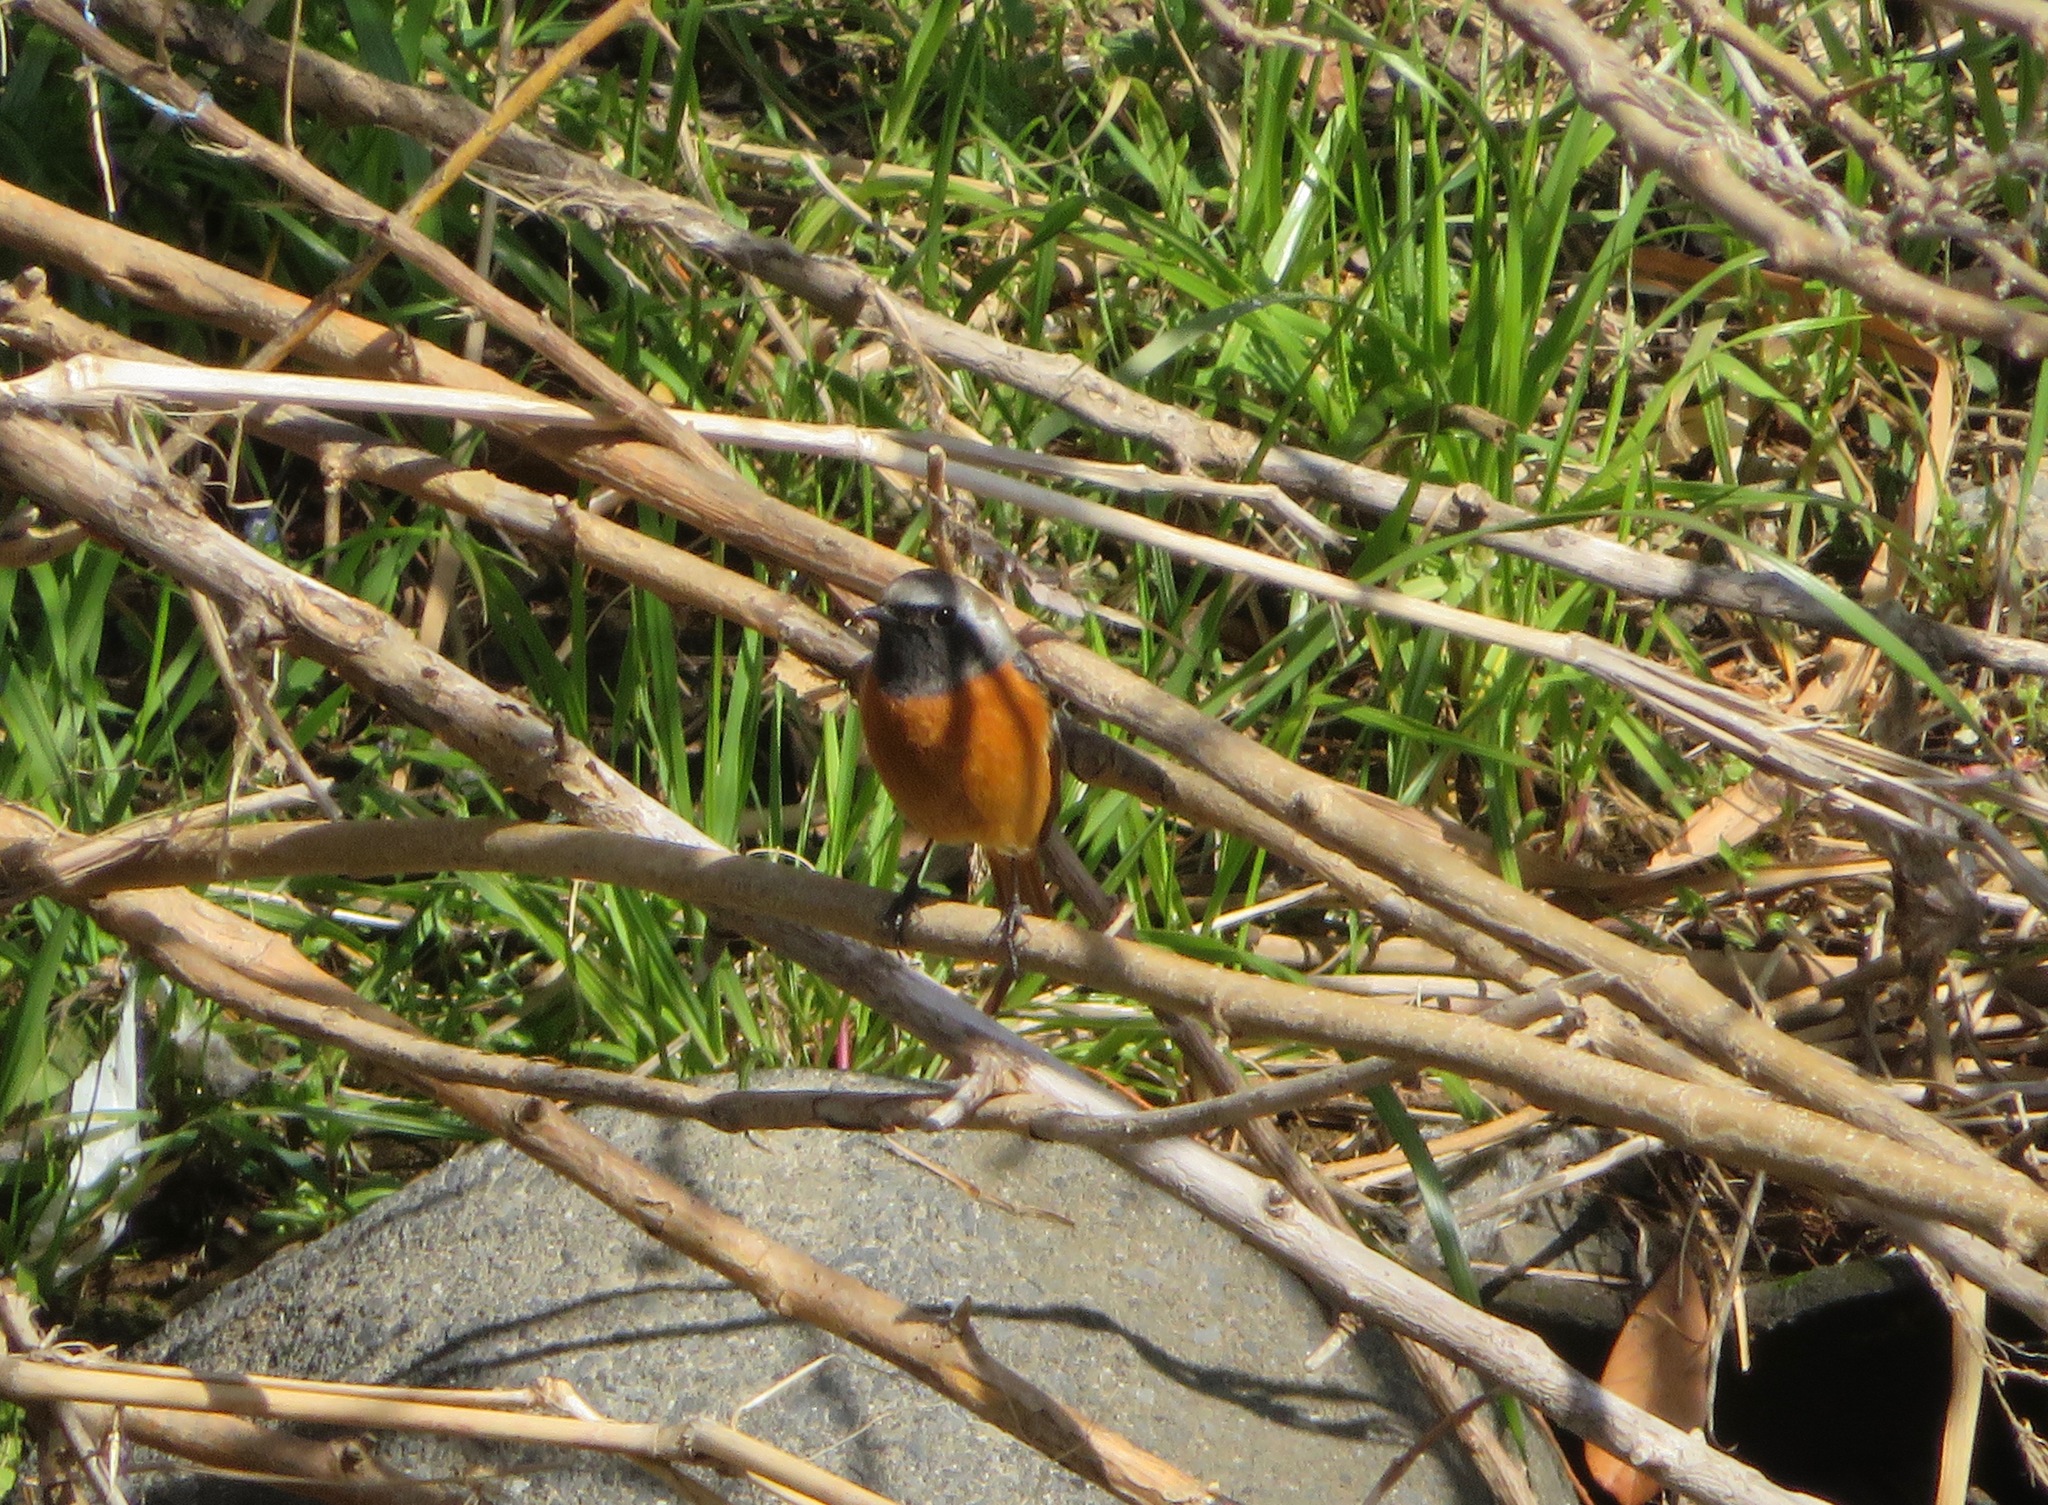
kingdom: Animalia
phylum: Chordata
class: Aves
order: Passeriformes
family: Muscicapidae
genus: Phoenicurus
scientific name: Phoenicurus auroreus
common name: Daurian redstart
